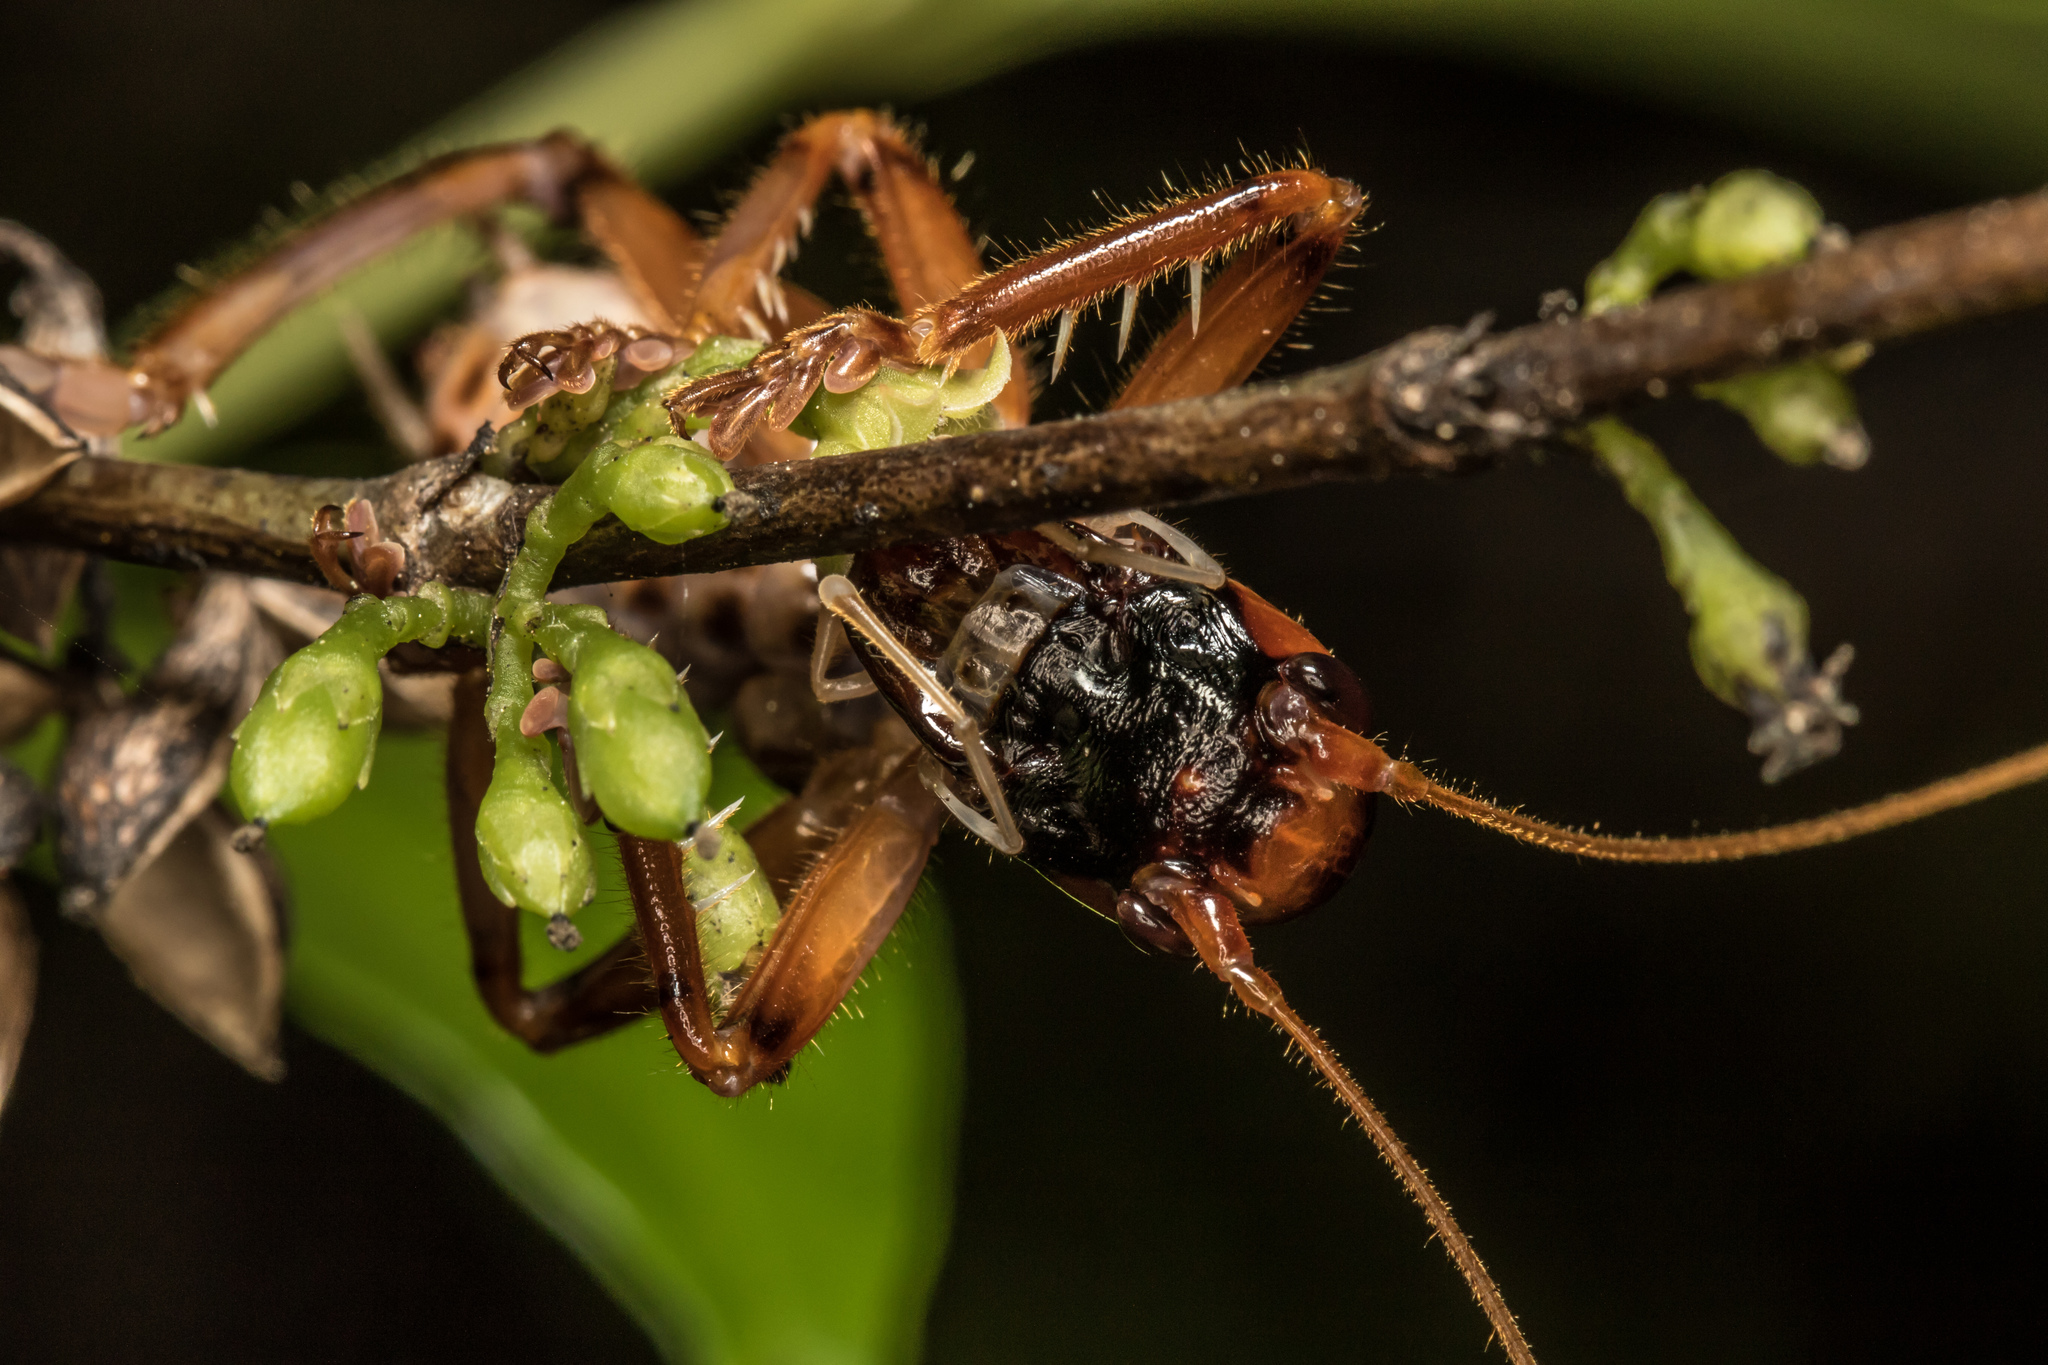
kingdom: Animalia
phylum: Arthropoda
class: Insecta
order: Orthoptera
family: Gryllacrididae
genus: Pterapotrechus
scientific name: Pterapotrechus
